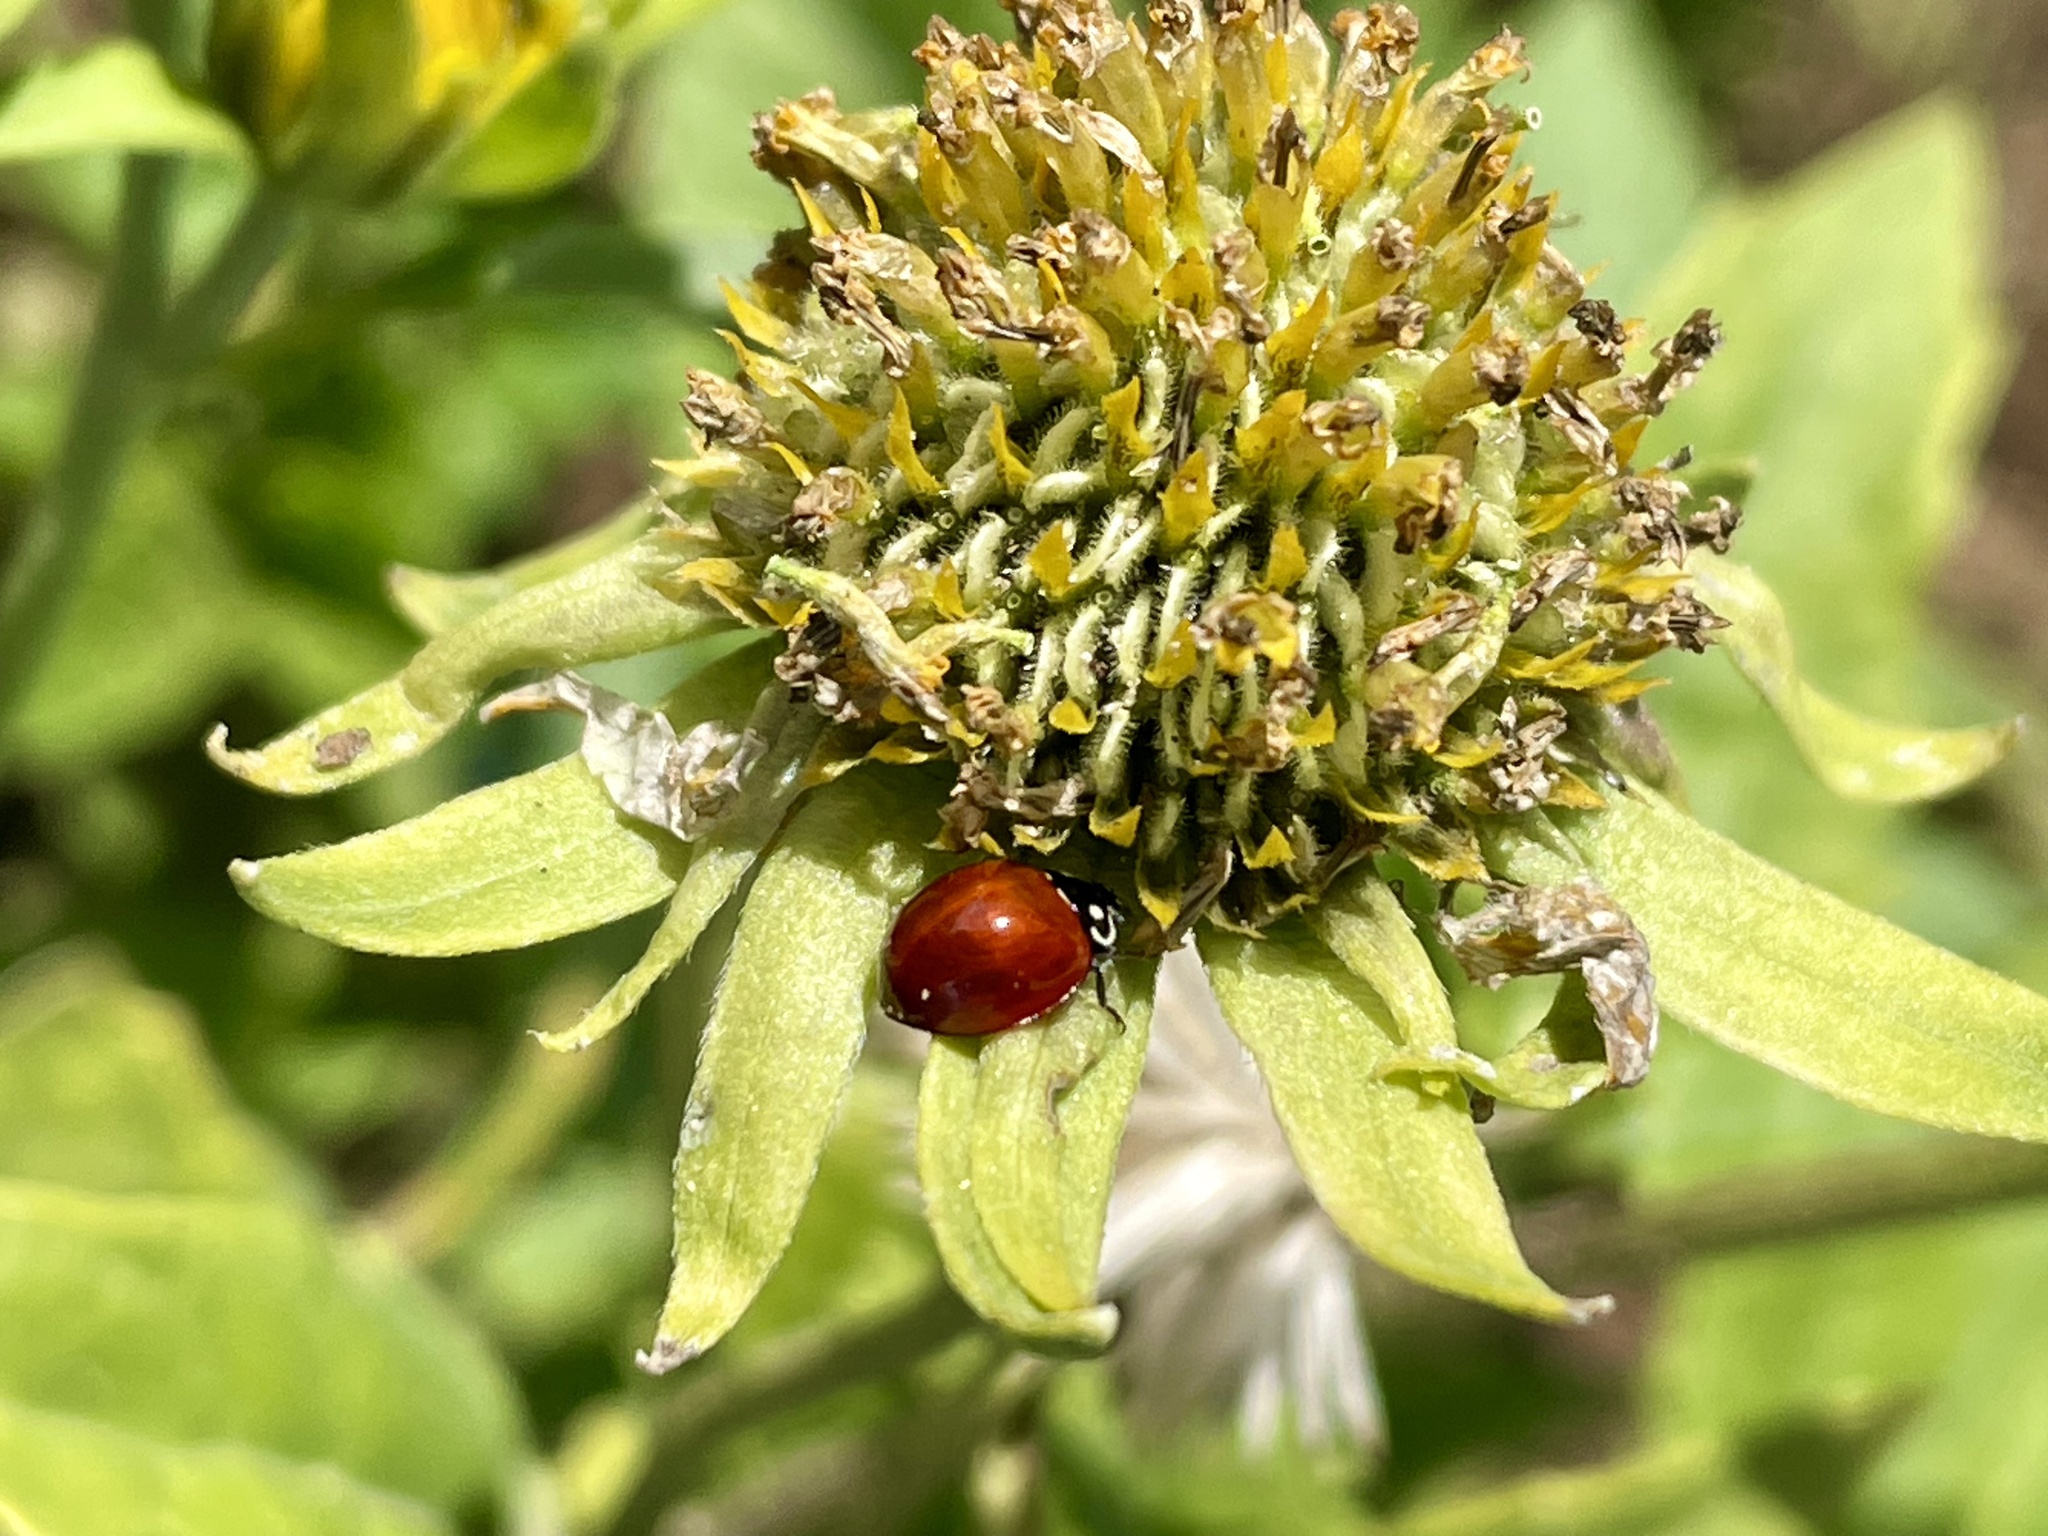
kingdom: Animalia
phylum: Arthropoda
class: Insecta
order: Coleoptera
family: Coccinellidae
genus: Cycloneda
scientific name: Cycloneda sanguinea
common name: Ladybird beetle
